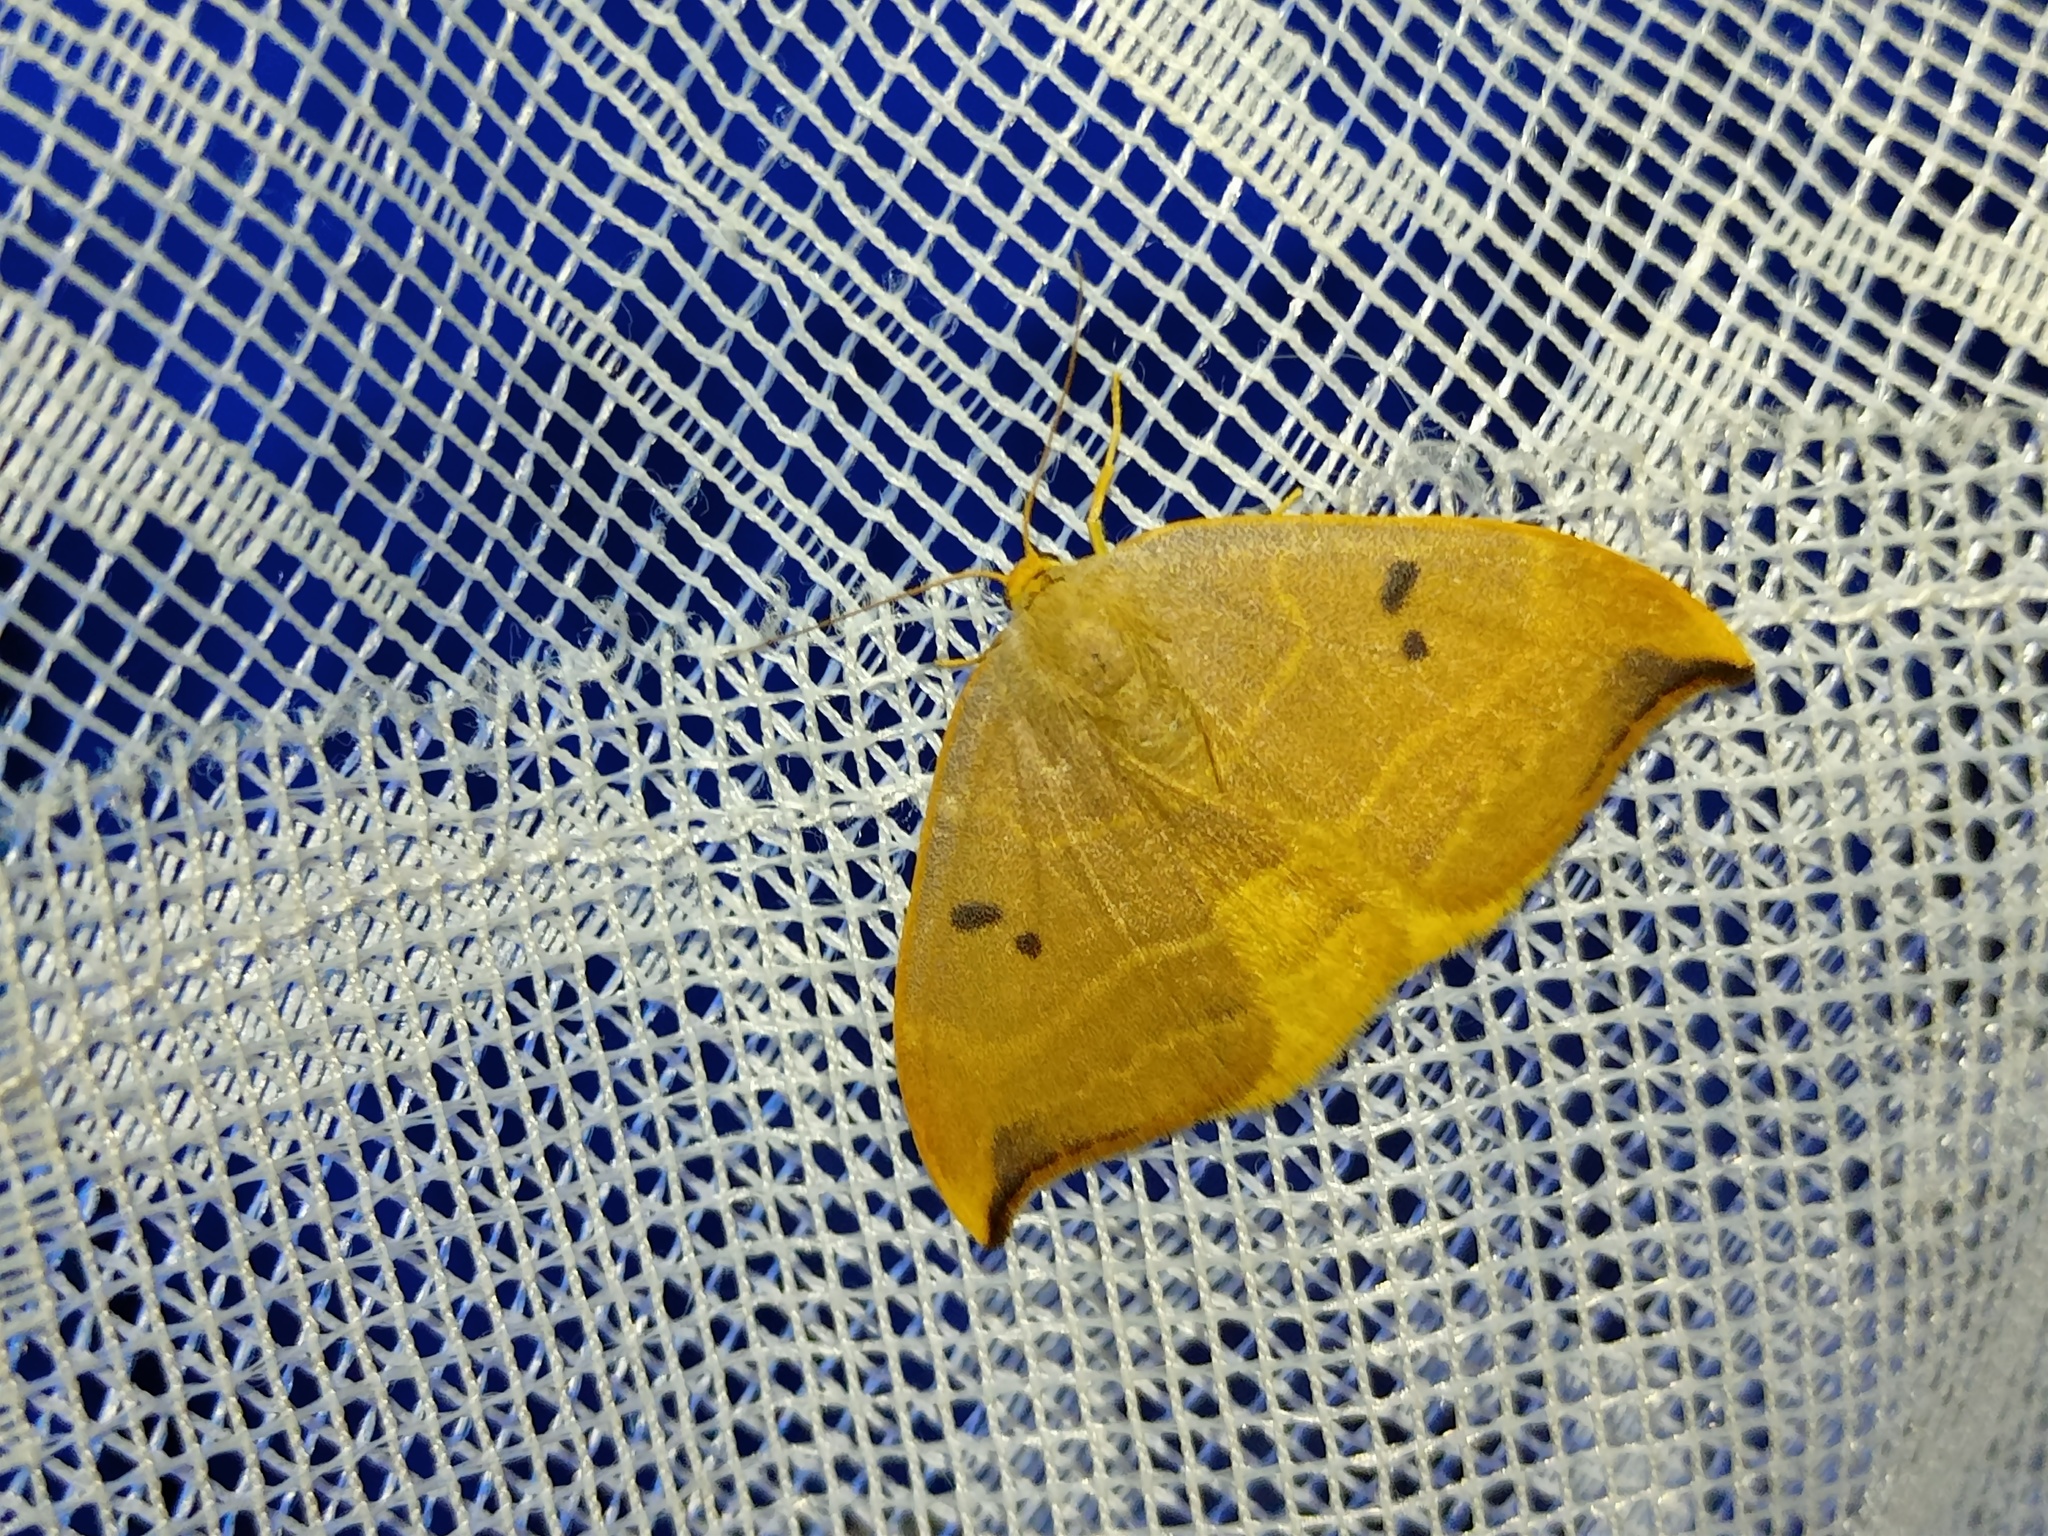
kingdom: Animalia
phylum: Arthropoda
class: Insecta
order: Lepidoptera
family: Drepanidae
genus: Watsonalla
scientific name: Watsonalla binaria
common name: Oak hook-tip
